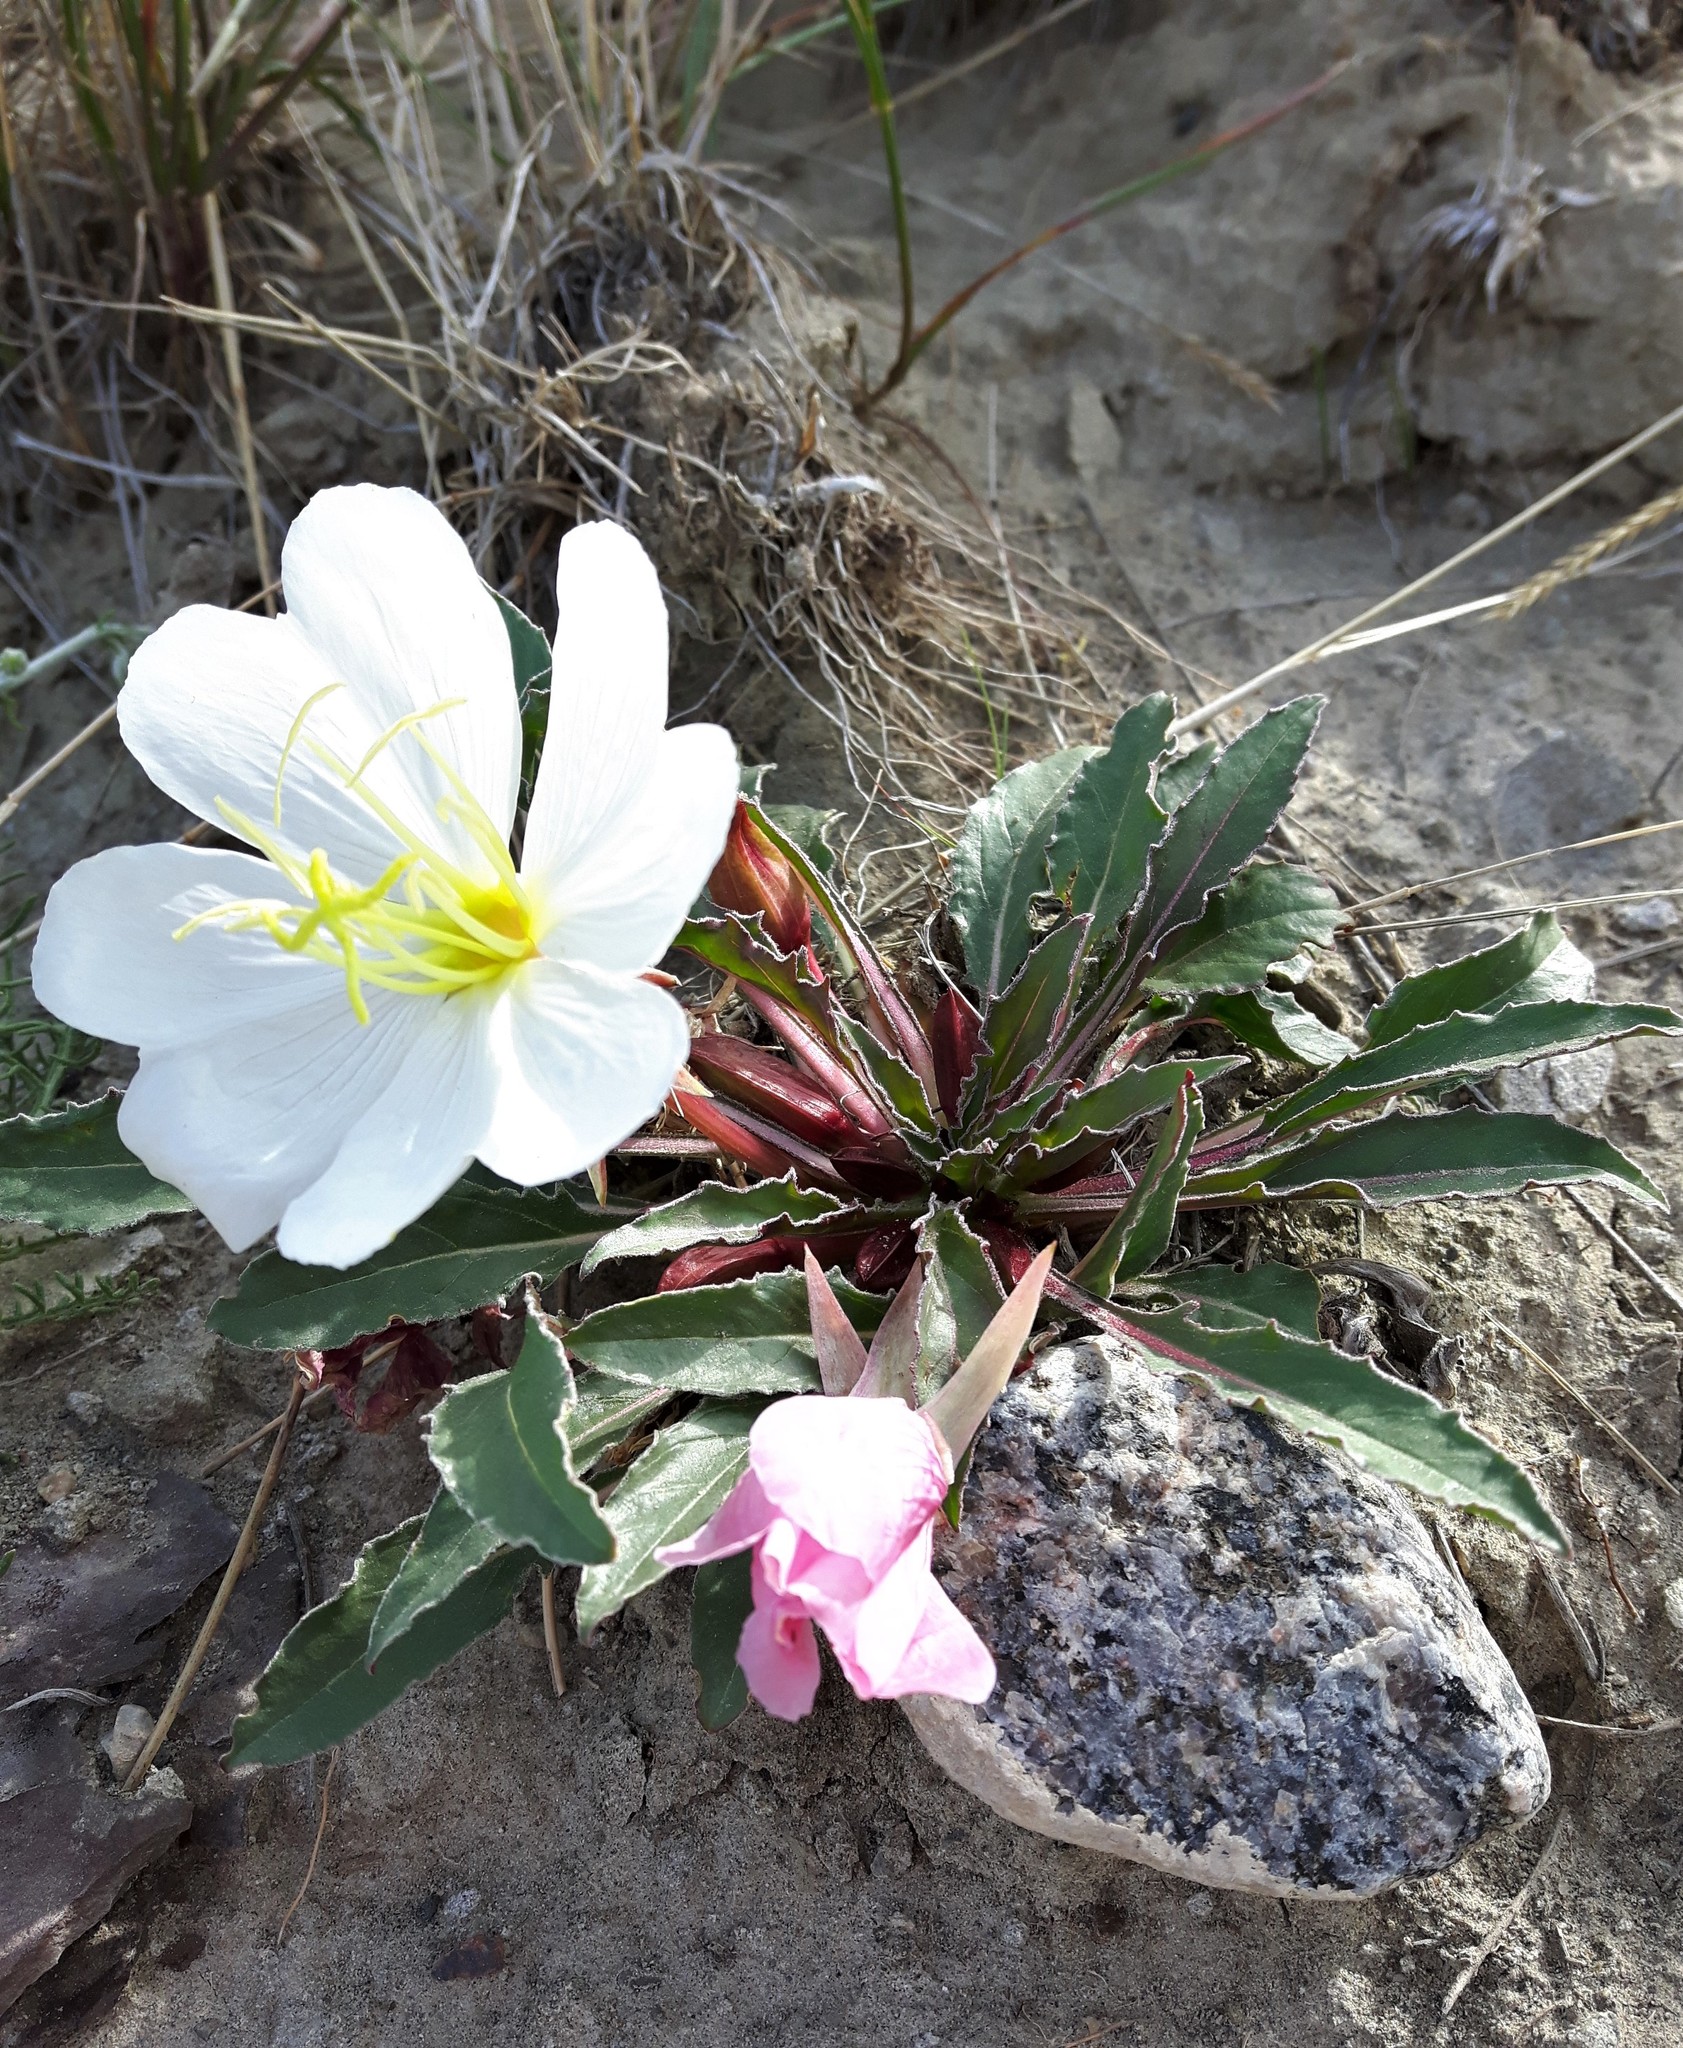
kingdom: Plantae
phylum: Tracheophyta
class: Magnoliopsida
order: Myrtales
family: Onagraceae
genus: Oenothera
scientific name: Oenothera cespitosa
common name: Tufted evening-primrose
